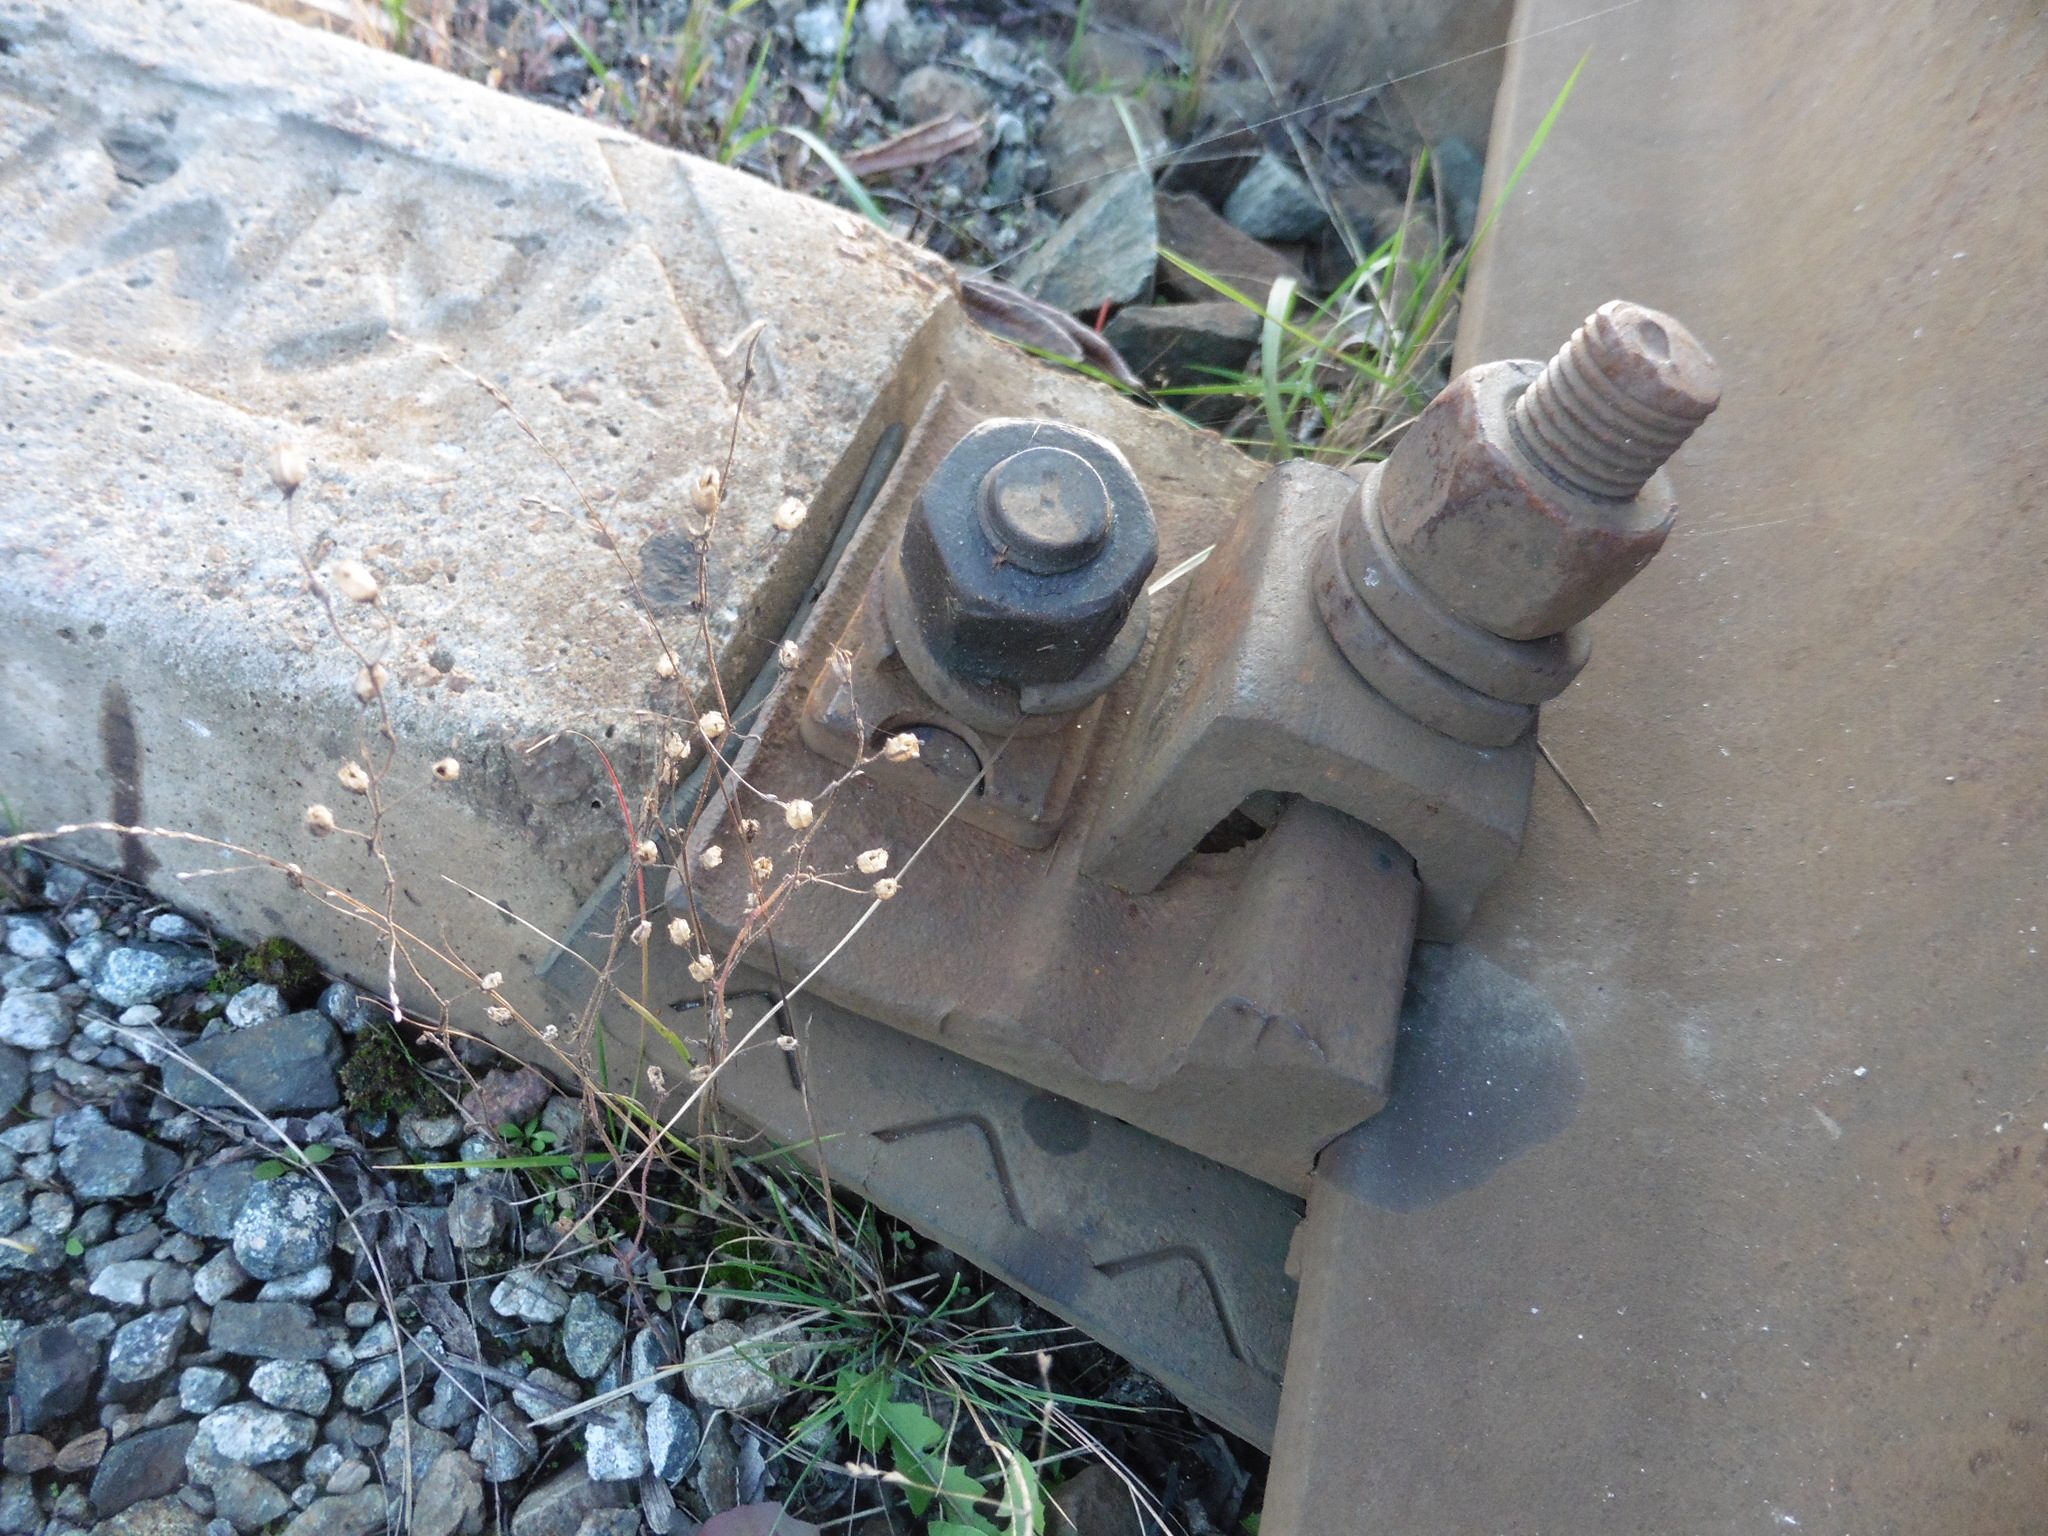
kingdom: Plantae
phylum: Tracheophyta
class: Magnoliopsida
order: Lamiales
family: Plantaginaceae
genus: Chaenorhinum
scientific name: Chaenorhinum minus
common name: Dwarf snapdragon
